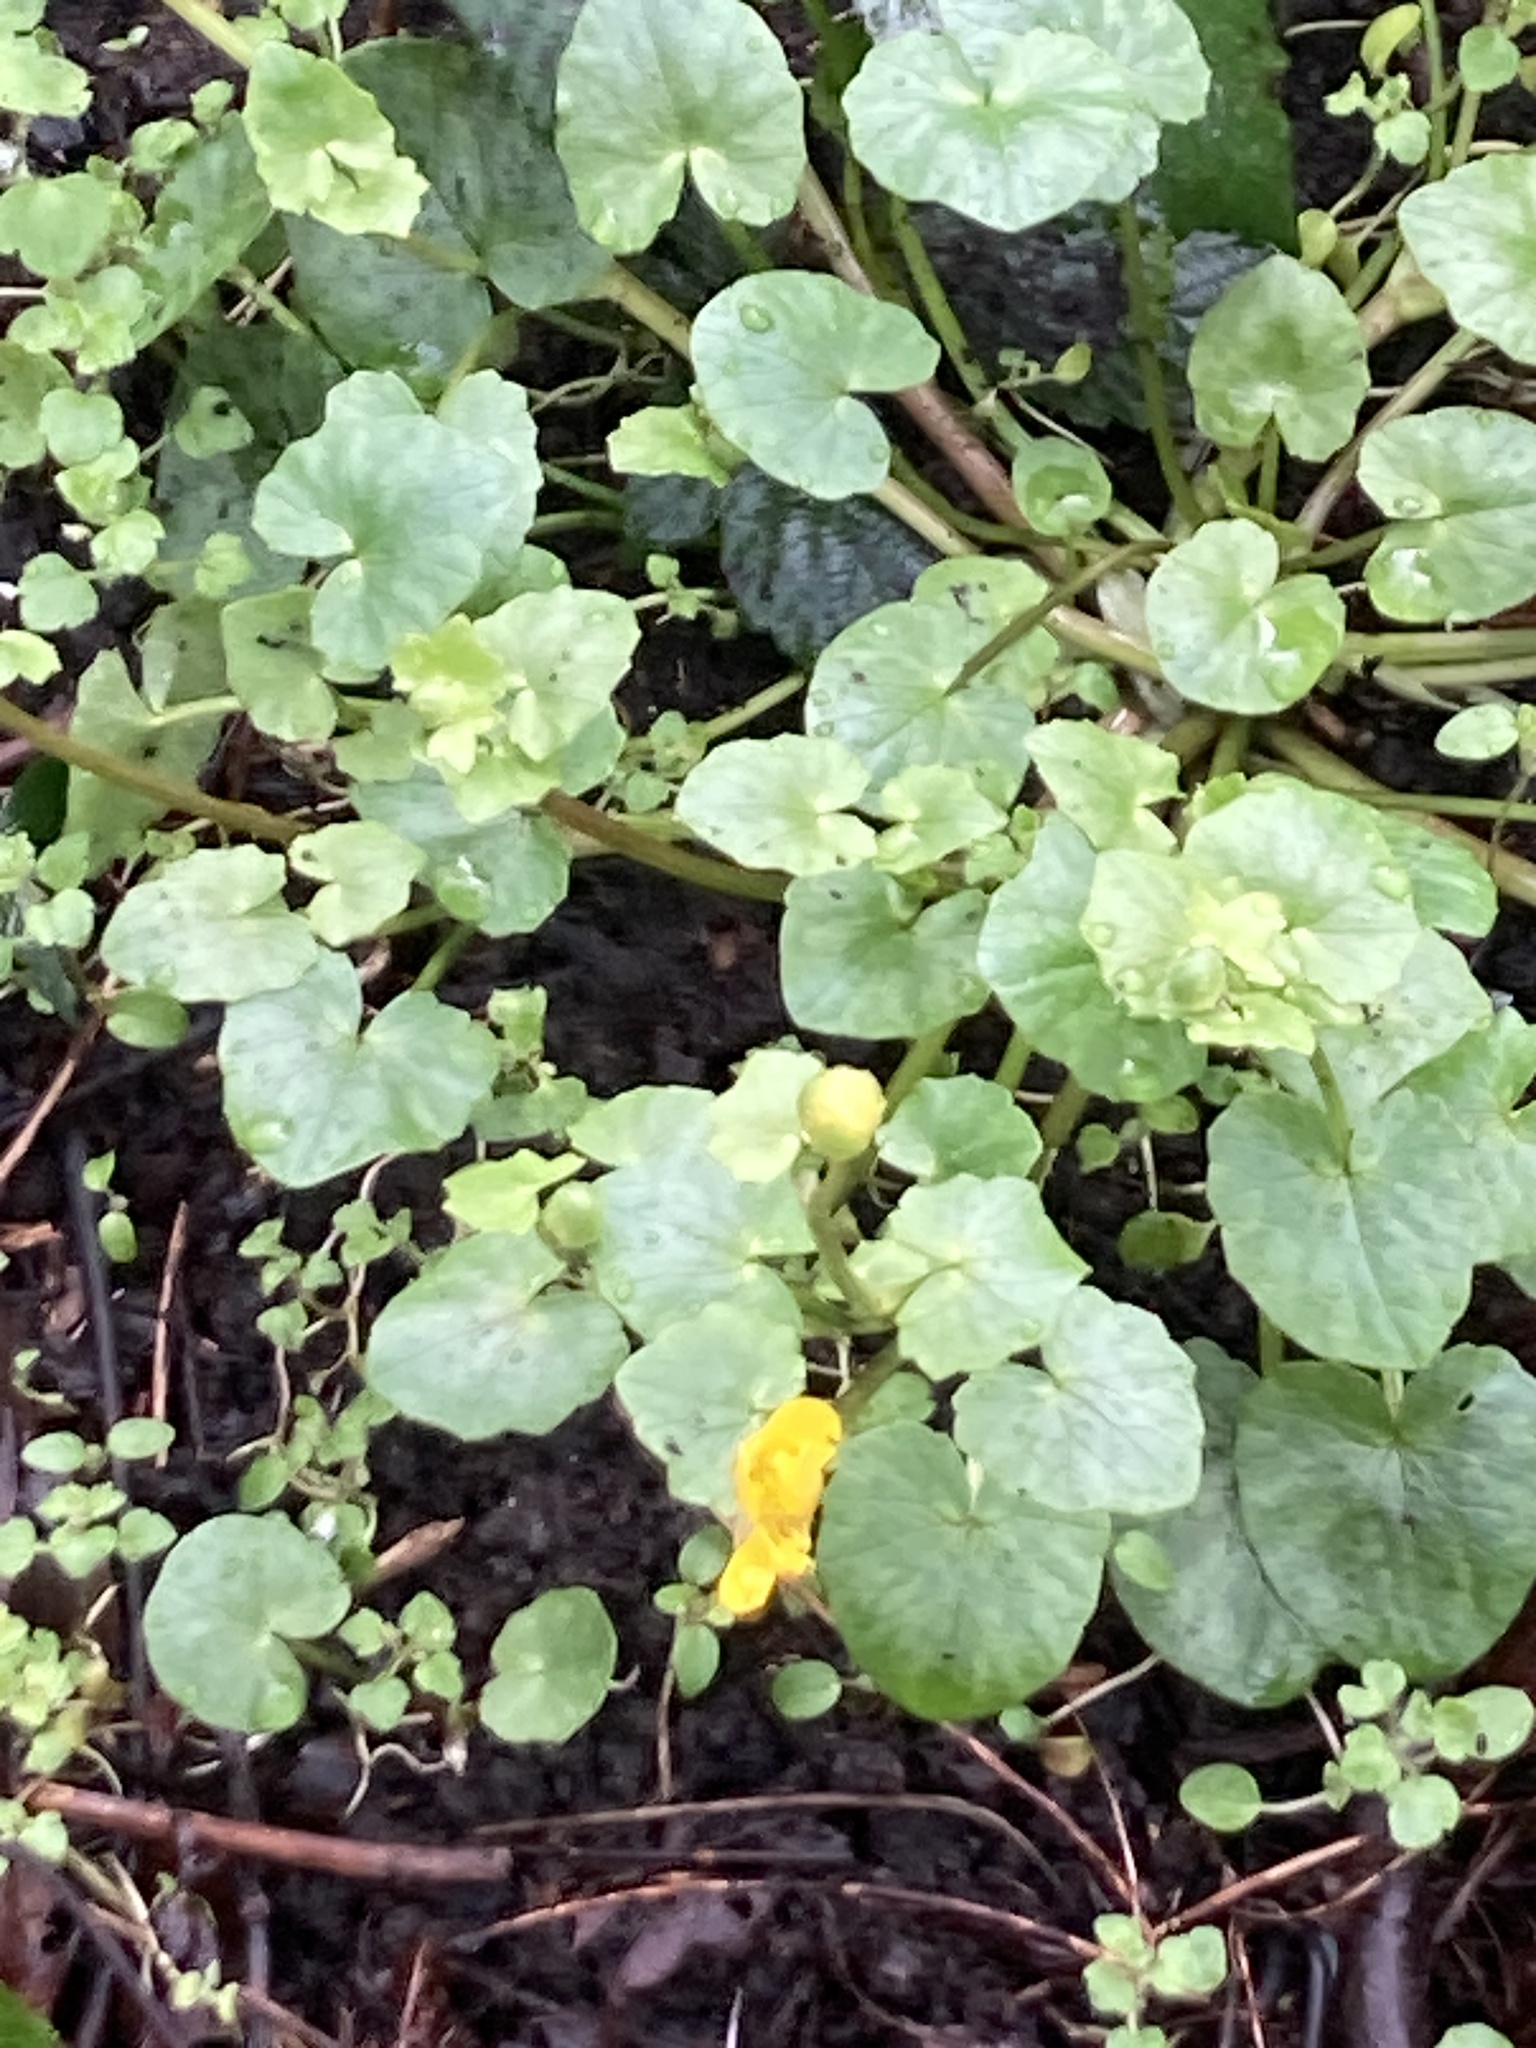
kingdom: Plantae
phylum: Tracheophyta
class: Magnoliopsida
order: Ranunculales
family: Ranunculaceae
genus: Ficaria
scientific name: Ficaria verna
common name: Lesser celandine
